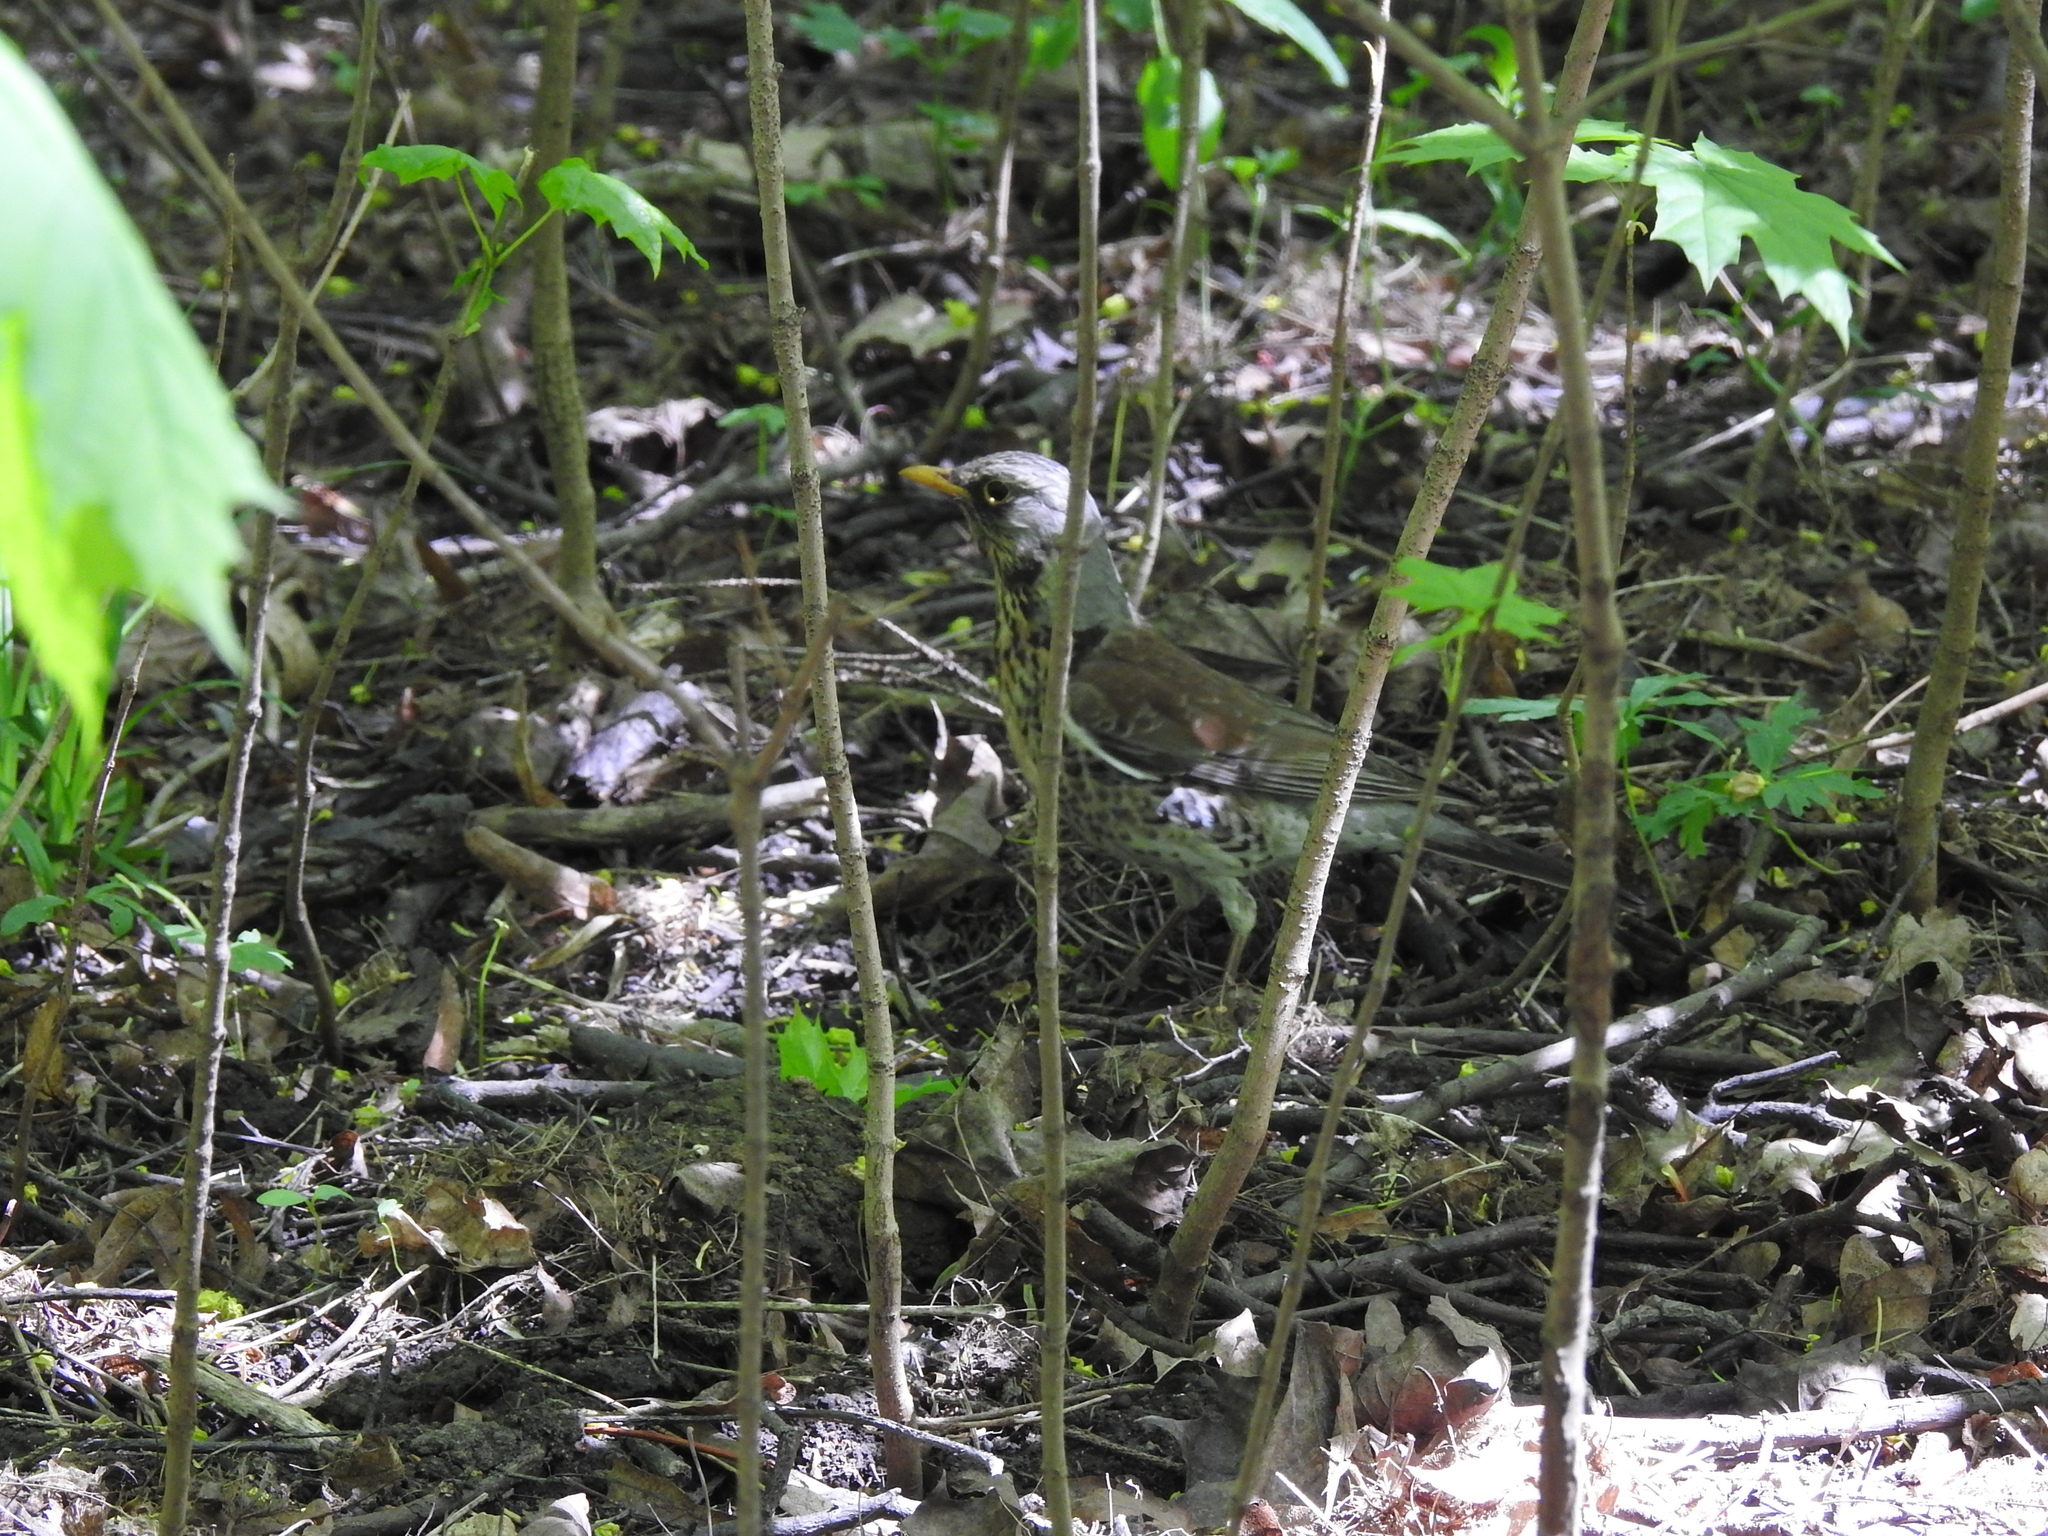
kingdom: Animalia
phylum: Chordata
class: Aves
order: Passeriformes
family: Turdidae
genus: Turdus
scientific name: Turdus pilaris
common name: Fieldfare
